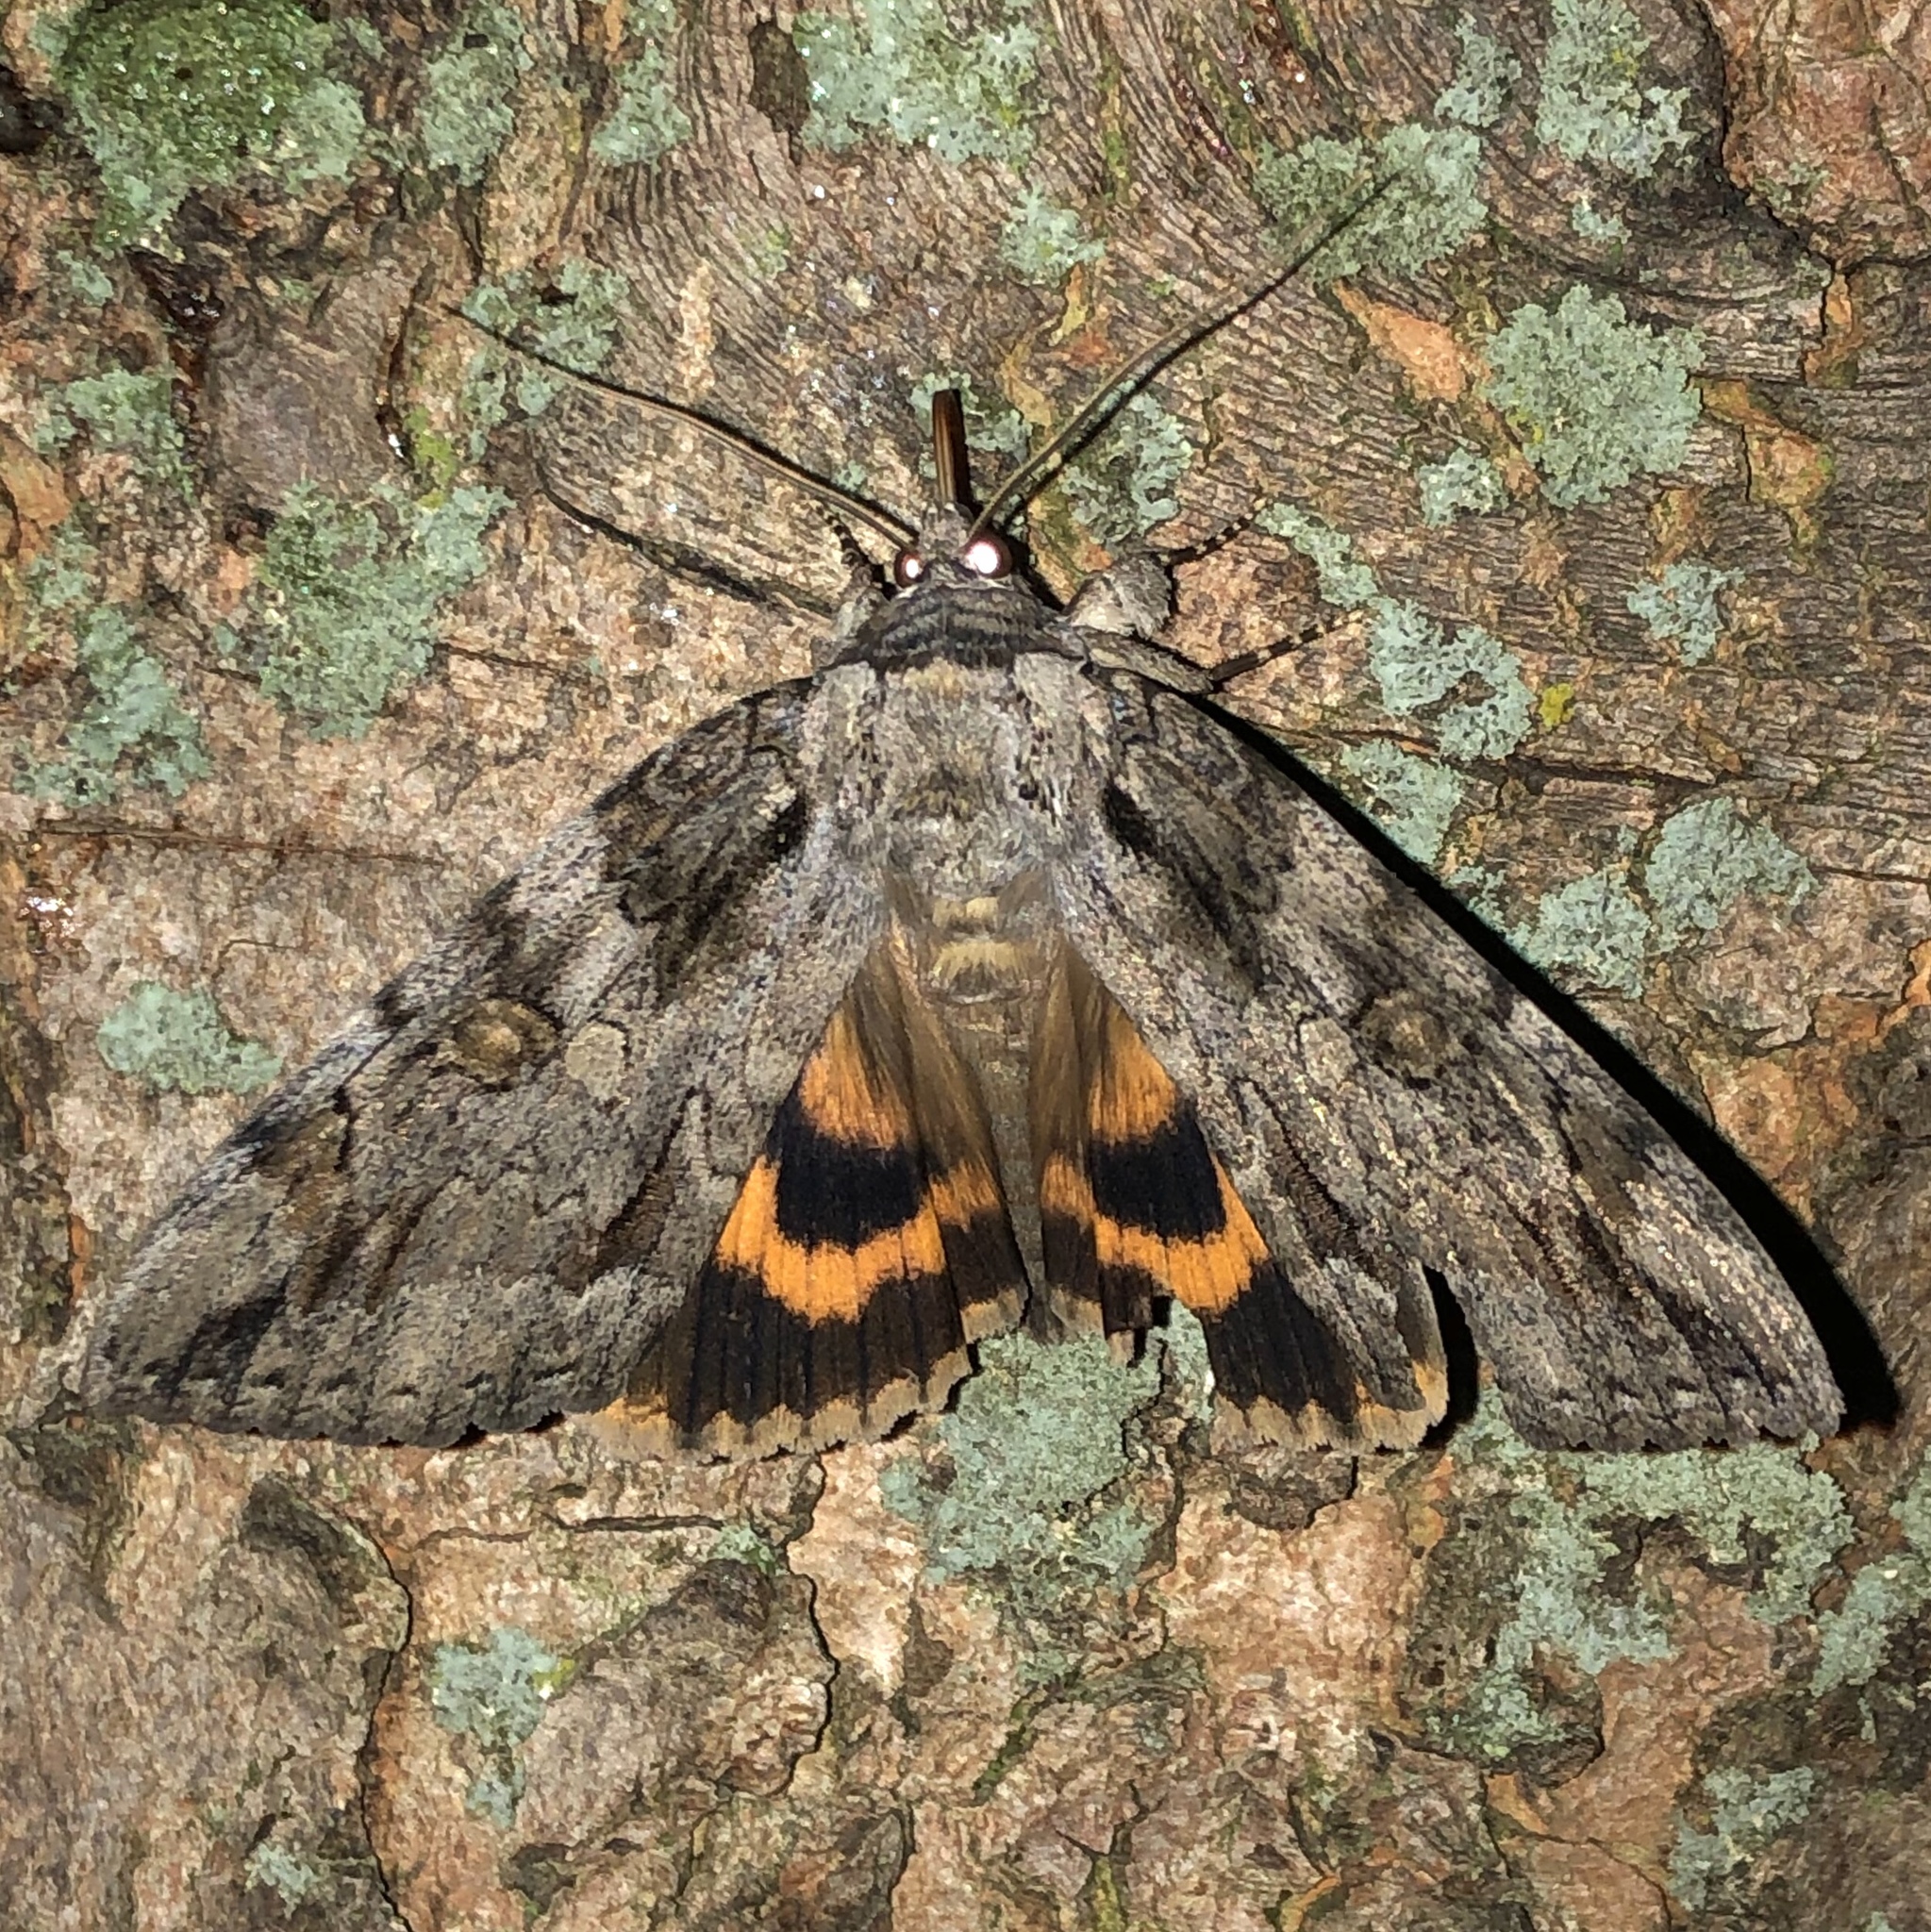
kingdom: Animalia
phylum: Arthropoda
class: Insecta
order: Lepidoptera
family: Erebidae
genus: Catocala
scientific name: Catocala neogama
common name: Bride underwing
